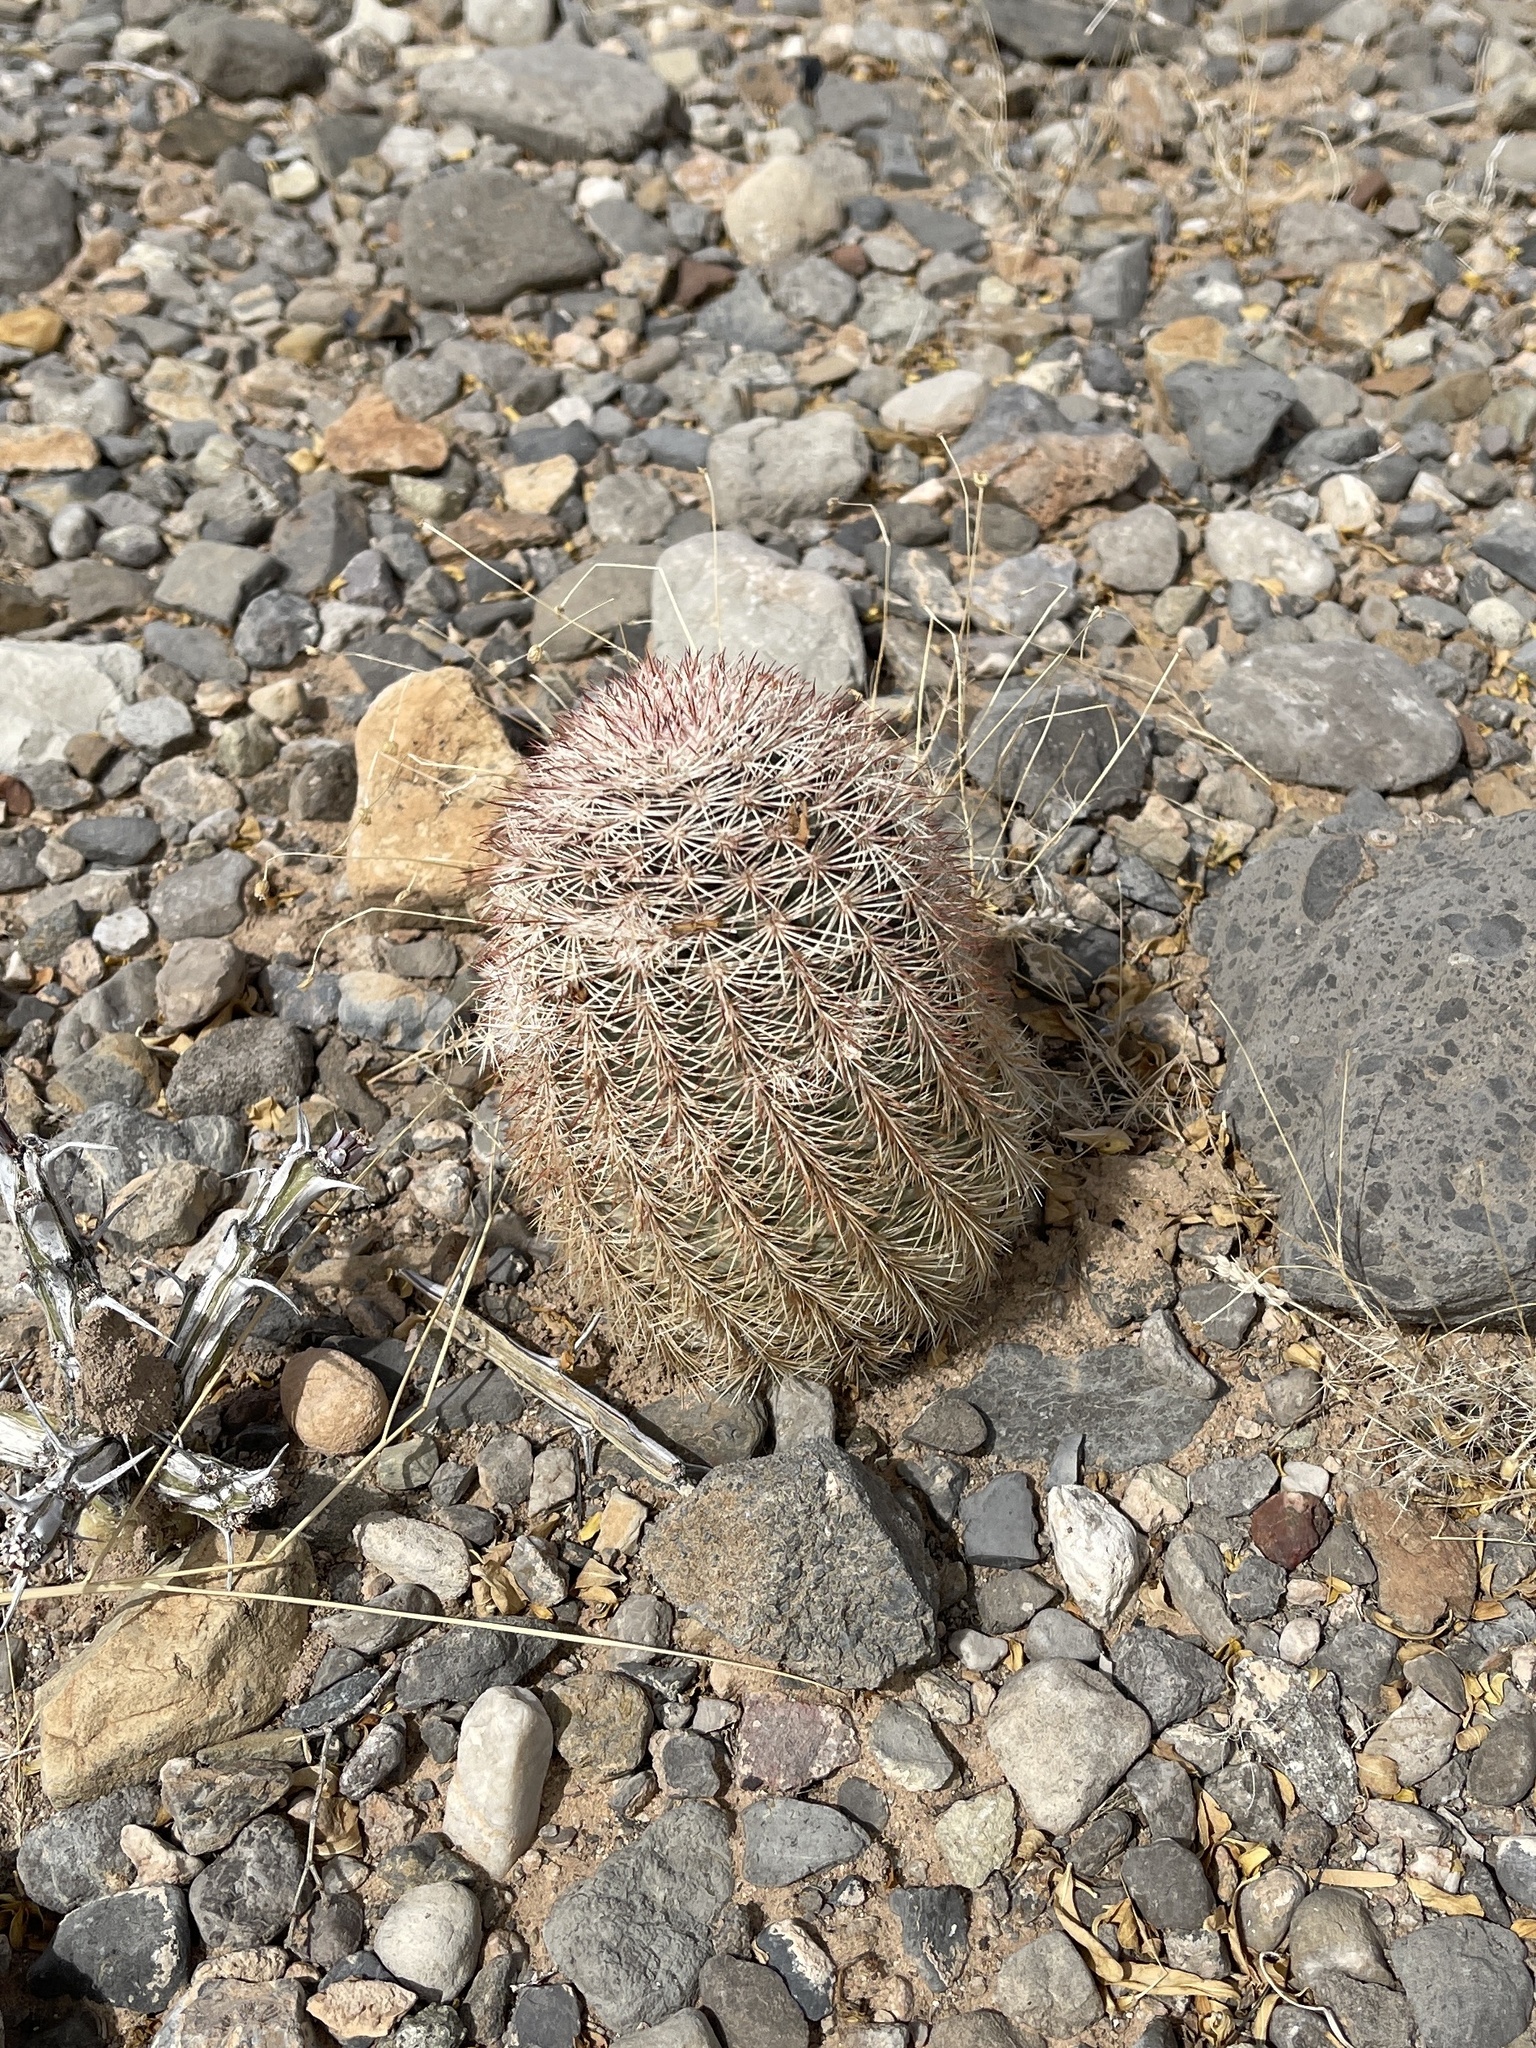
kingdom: Plantae
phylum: Tracheophyta
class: Magnoliopsida
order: Caryophyllales
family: Cactaceae
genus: Echinocereus
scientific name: Echinocereus dasyacanthus
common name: Spiny hedgehog cactus
